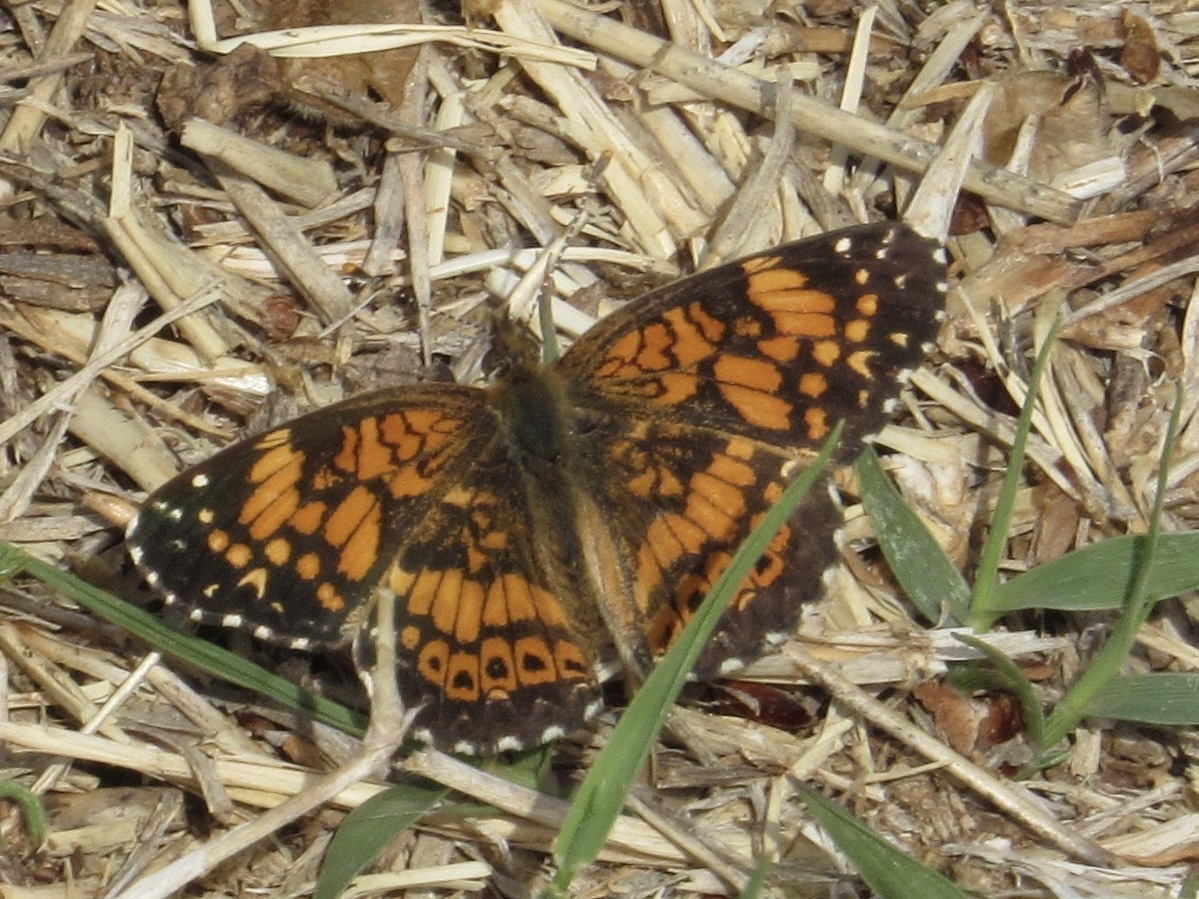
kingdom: Animalia
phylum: Arthropoda
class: Insecta
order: Lepidoptera
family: Nymphalidae
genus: Chlosyne
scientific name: Chlosyne gorgone
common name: Gorgone checkerspot
